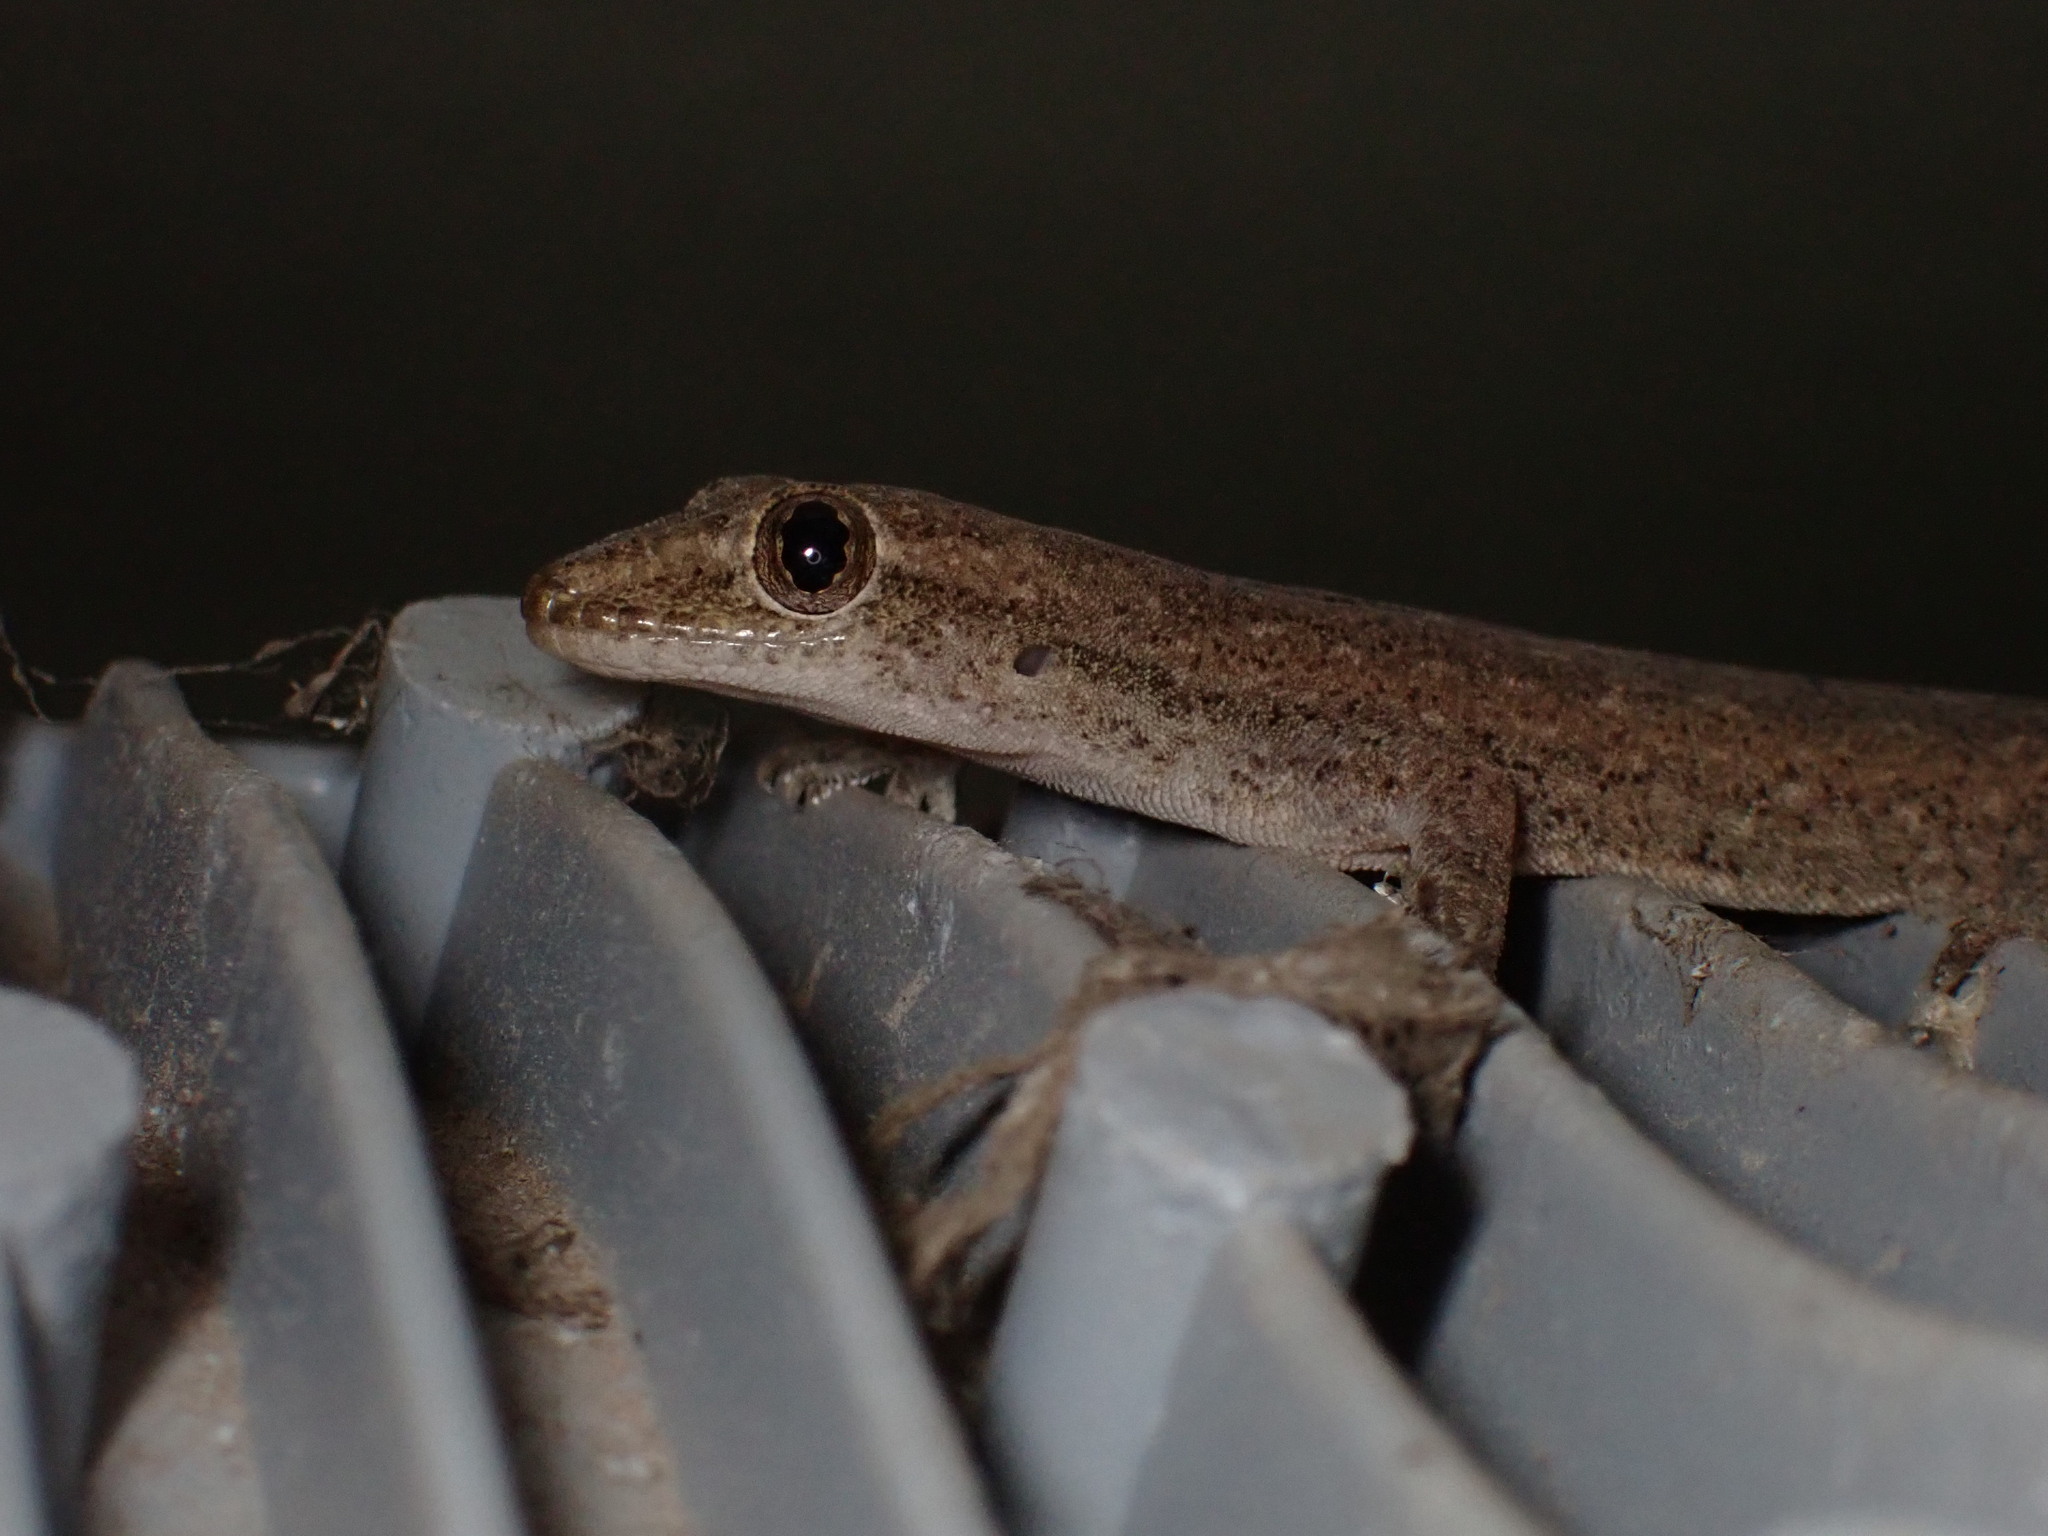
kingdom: Animalia
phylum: Chordata
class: Squamata
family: Gekkonidae
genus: Hemidactylus
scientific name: Hemidactylus frenatus
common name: Common house gecko
